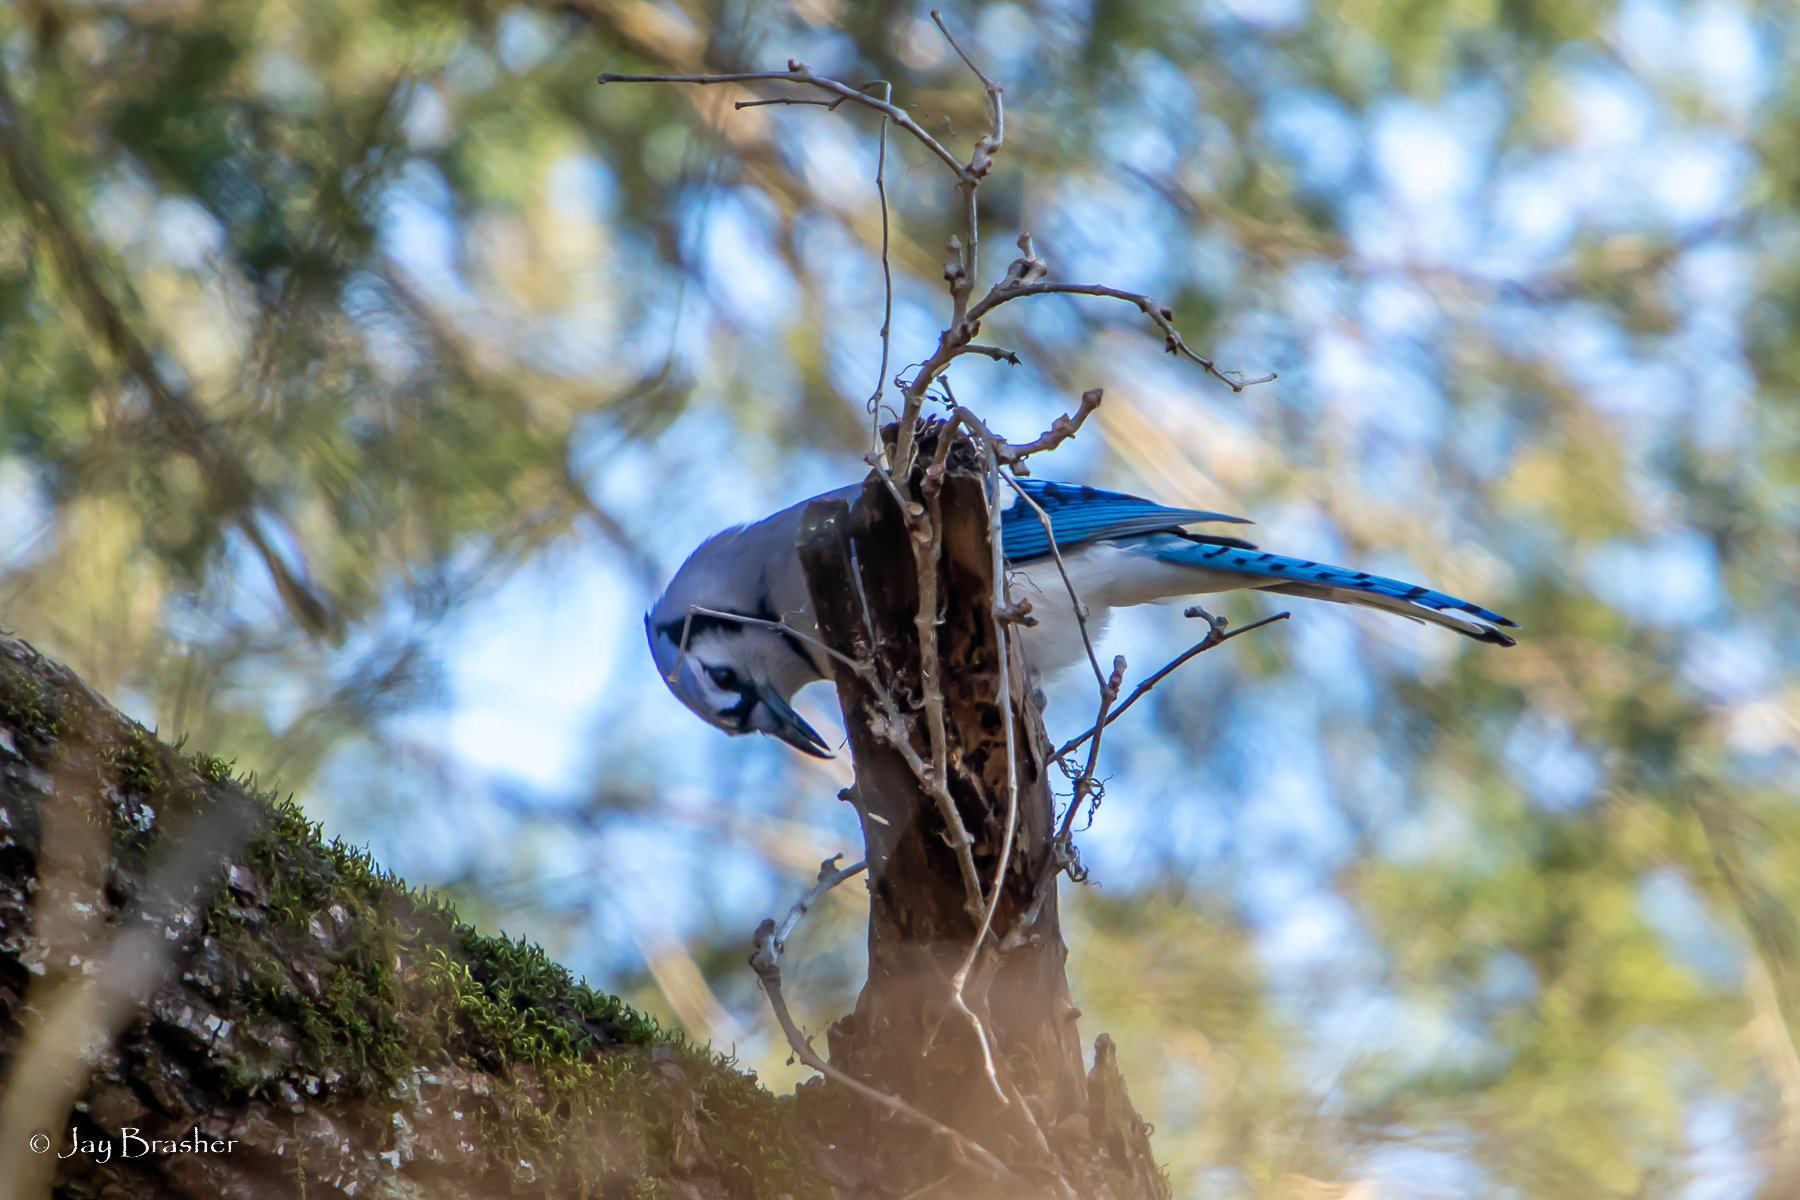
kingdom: Animalia
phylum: Chordata
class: Aves
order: Passeriformes
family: Corvidae
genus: Cyanocitta
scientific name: Cyanocitta cristata
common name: Blue jay
